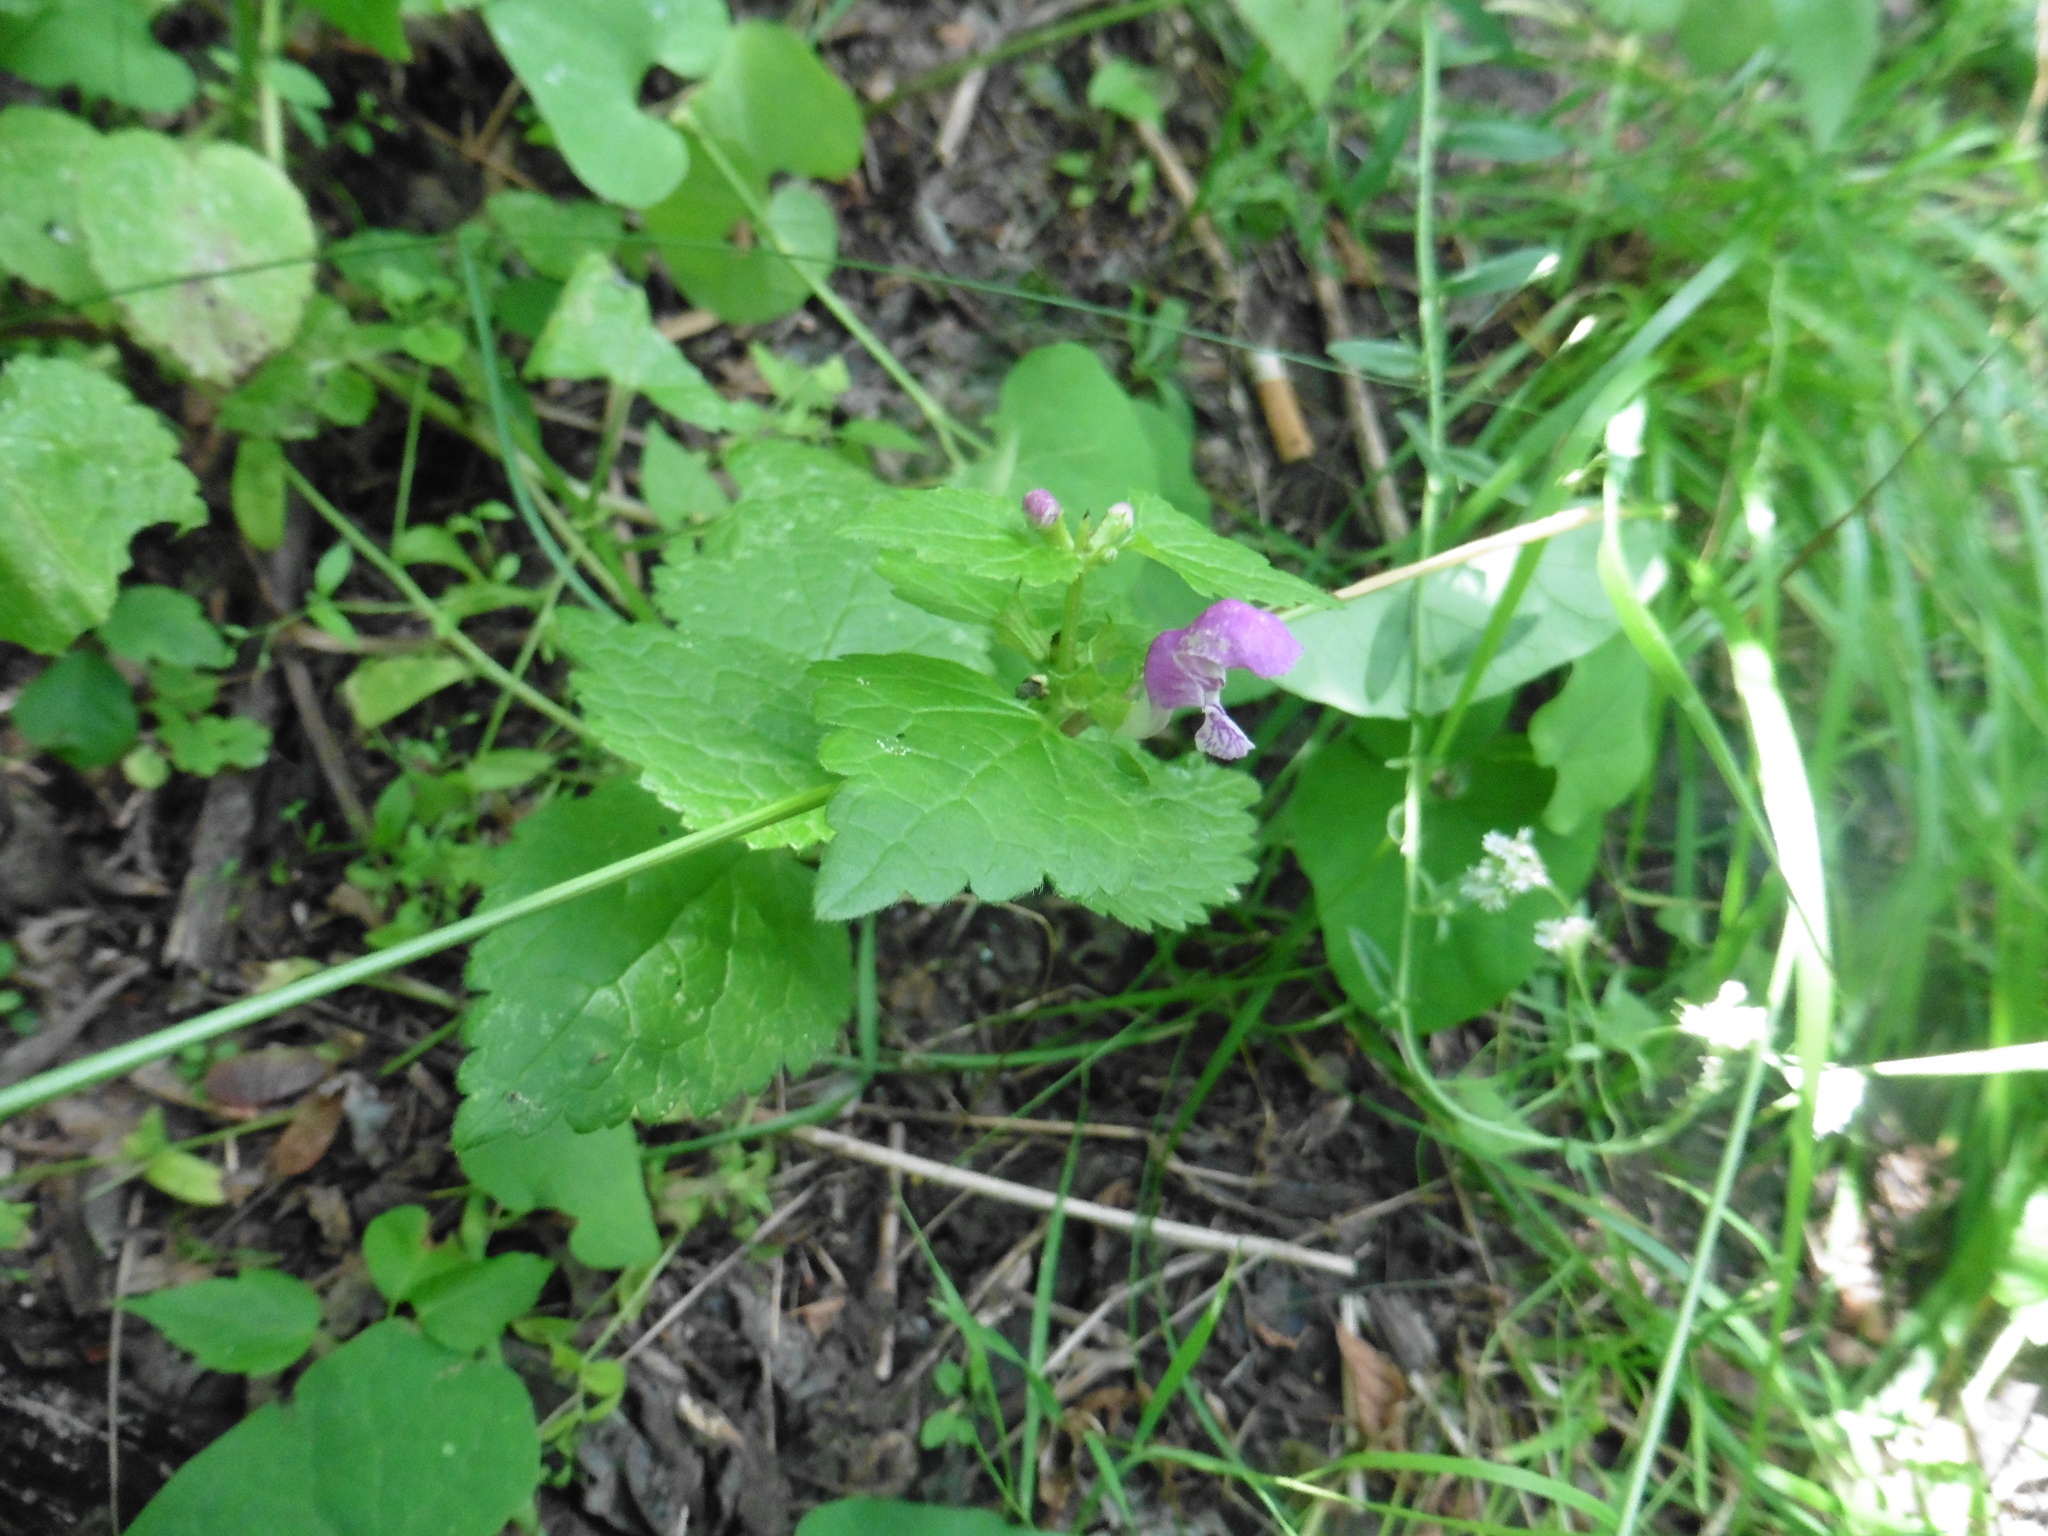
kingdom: Plantae
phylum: Tracheophyta
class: Magnoliopsida
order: Lamiales
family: Lamiaceae
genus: Lamium
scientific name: Lamium maculatum
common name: Spotted dead-nettle
